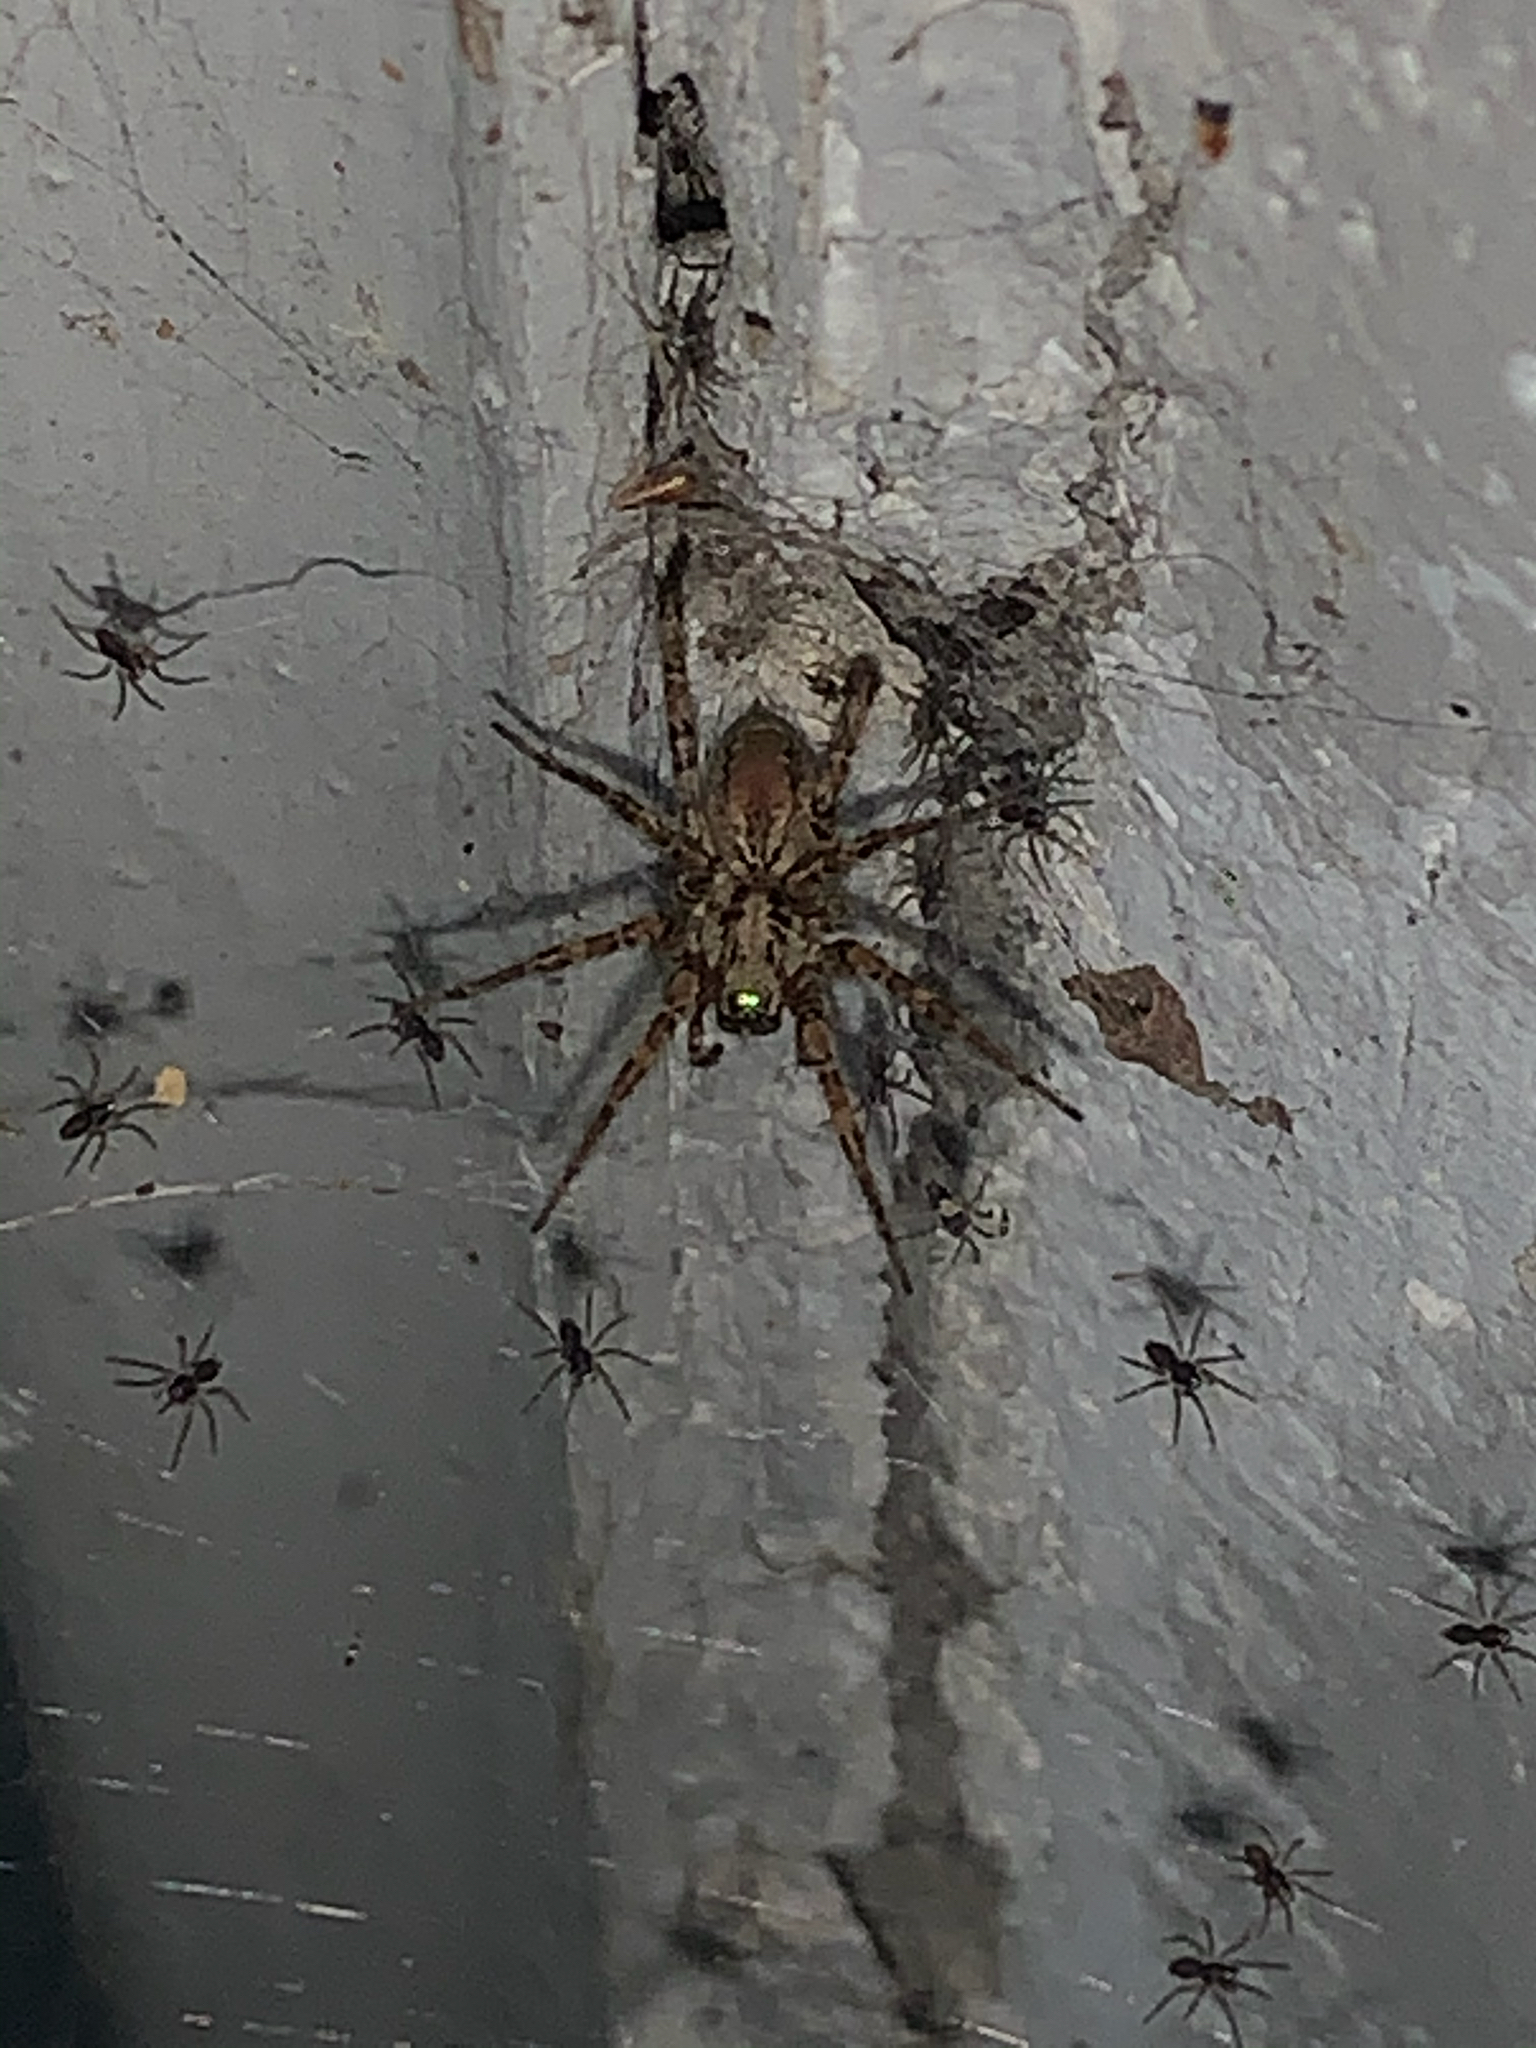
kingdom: Animalia
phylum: Arthropoda
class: Arachnida
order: Araneae
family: Agelenidae
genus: Barronopsis
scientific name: Barronopsis jeffersi
